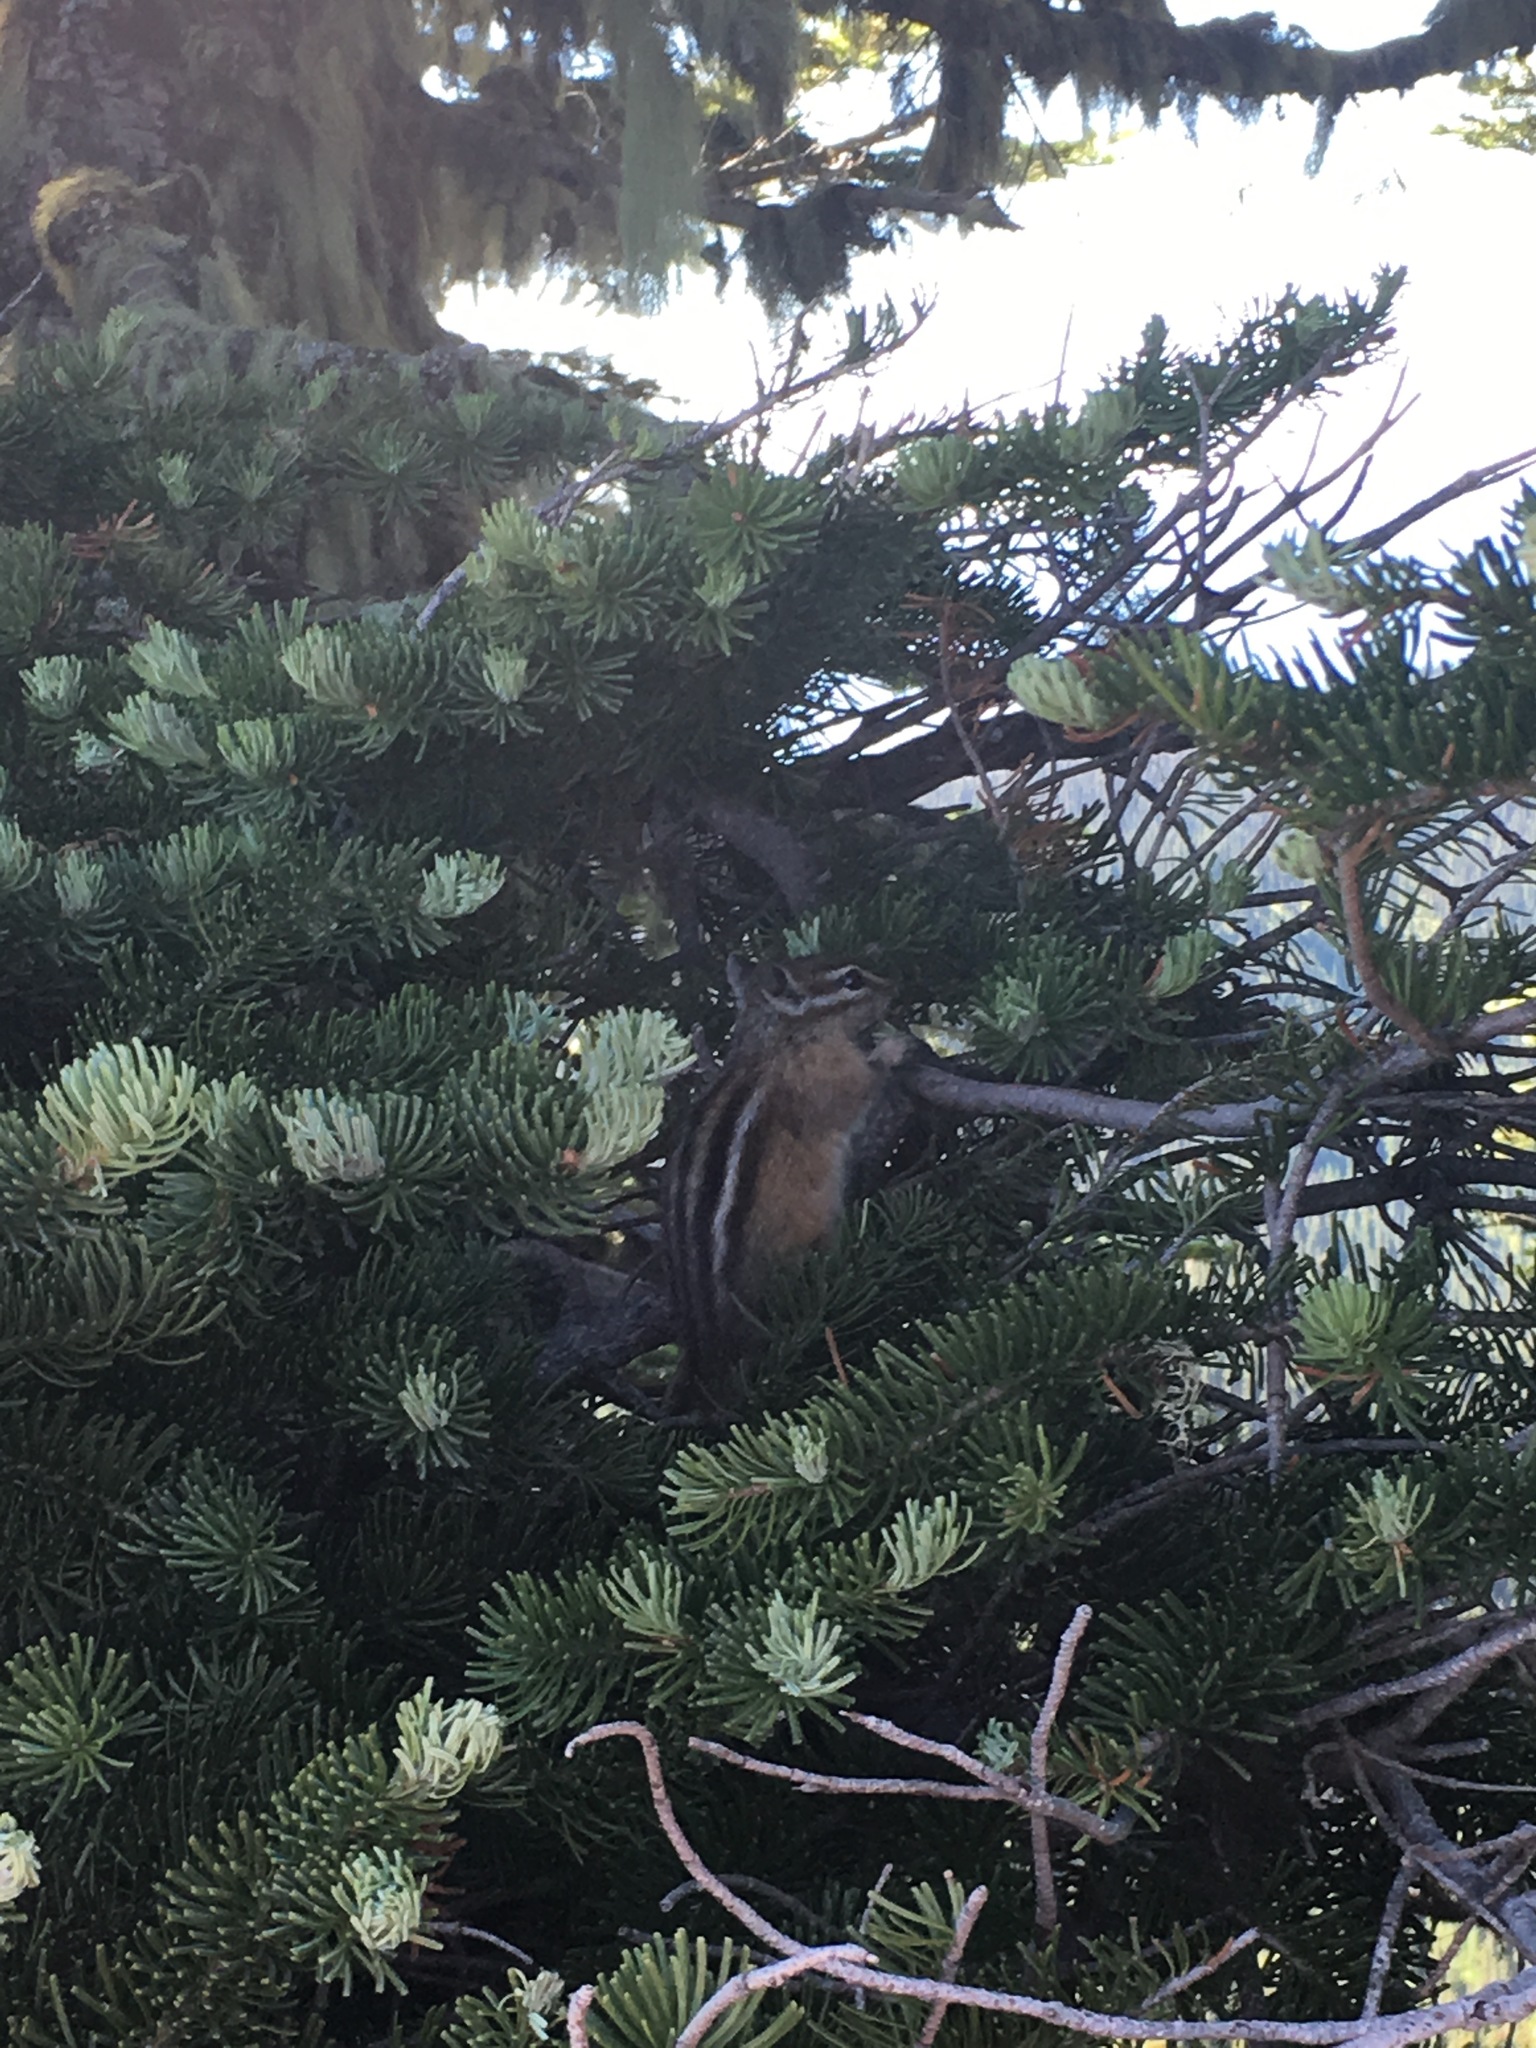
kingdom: Animalia
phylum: Chordata
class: Mammalia
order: Rodentia
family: Sciuridae
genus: Tamias
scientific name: Tamias amoenus
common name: Yellow-pine chipmunk
